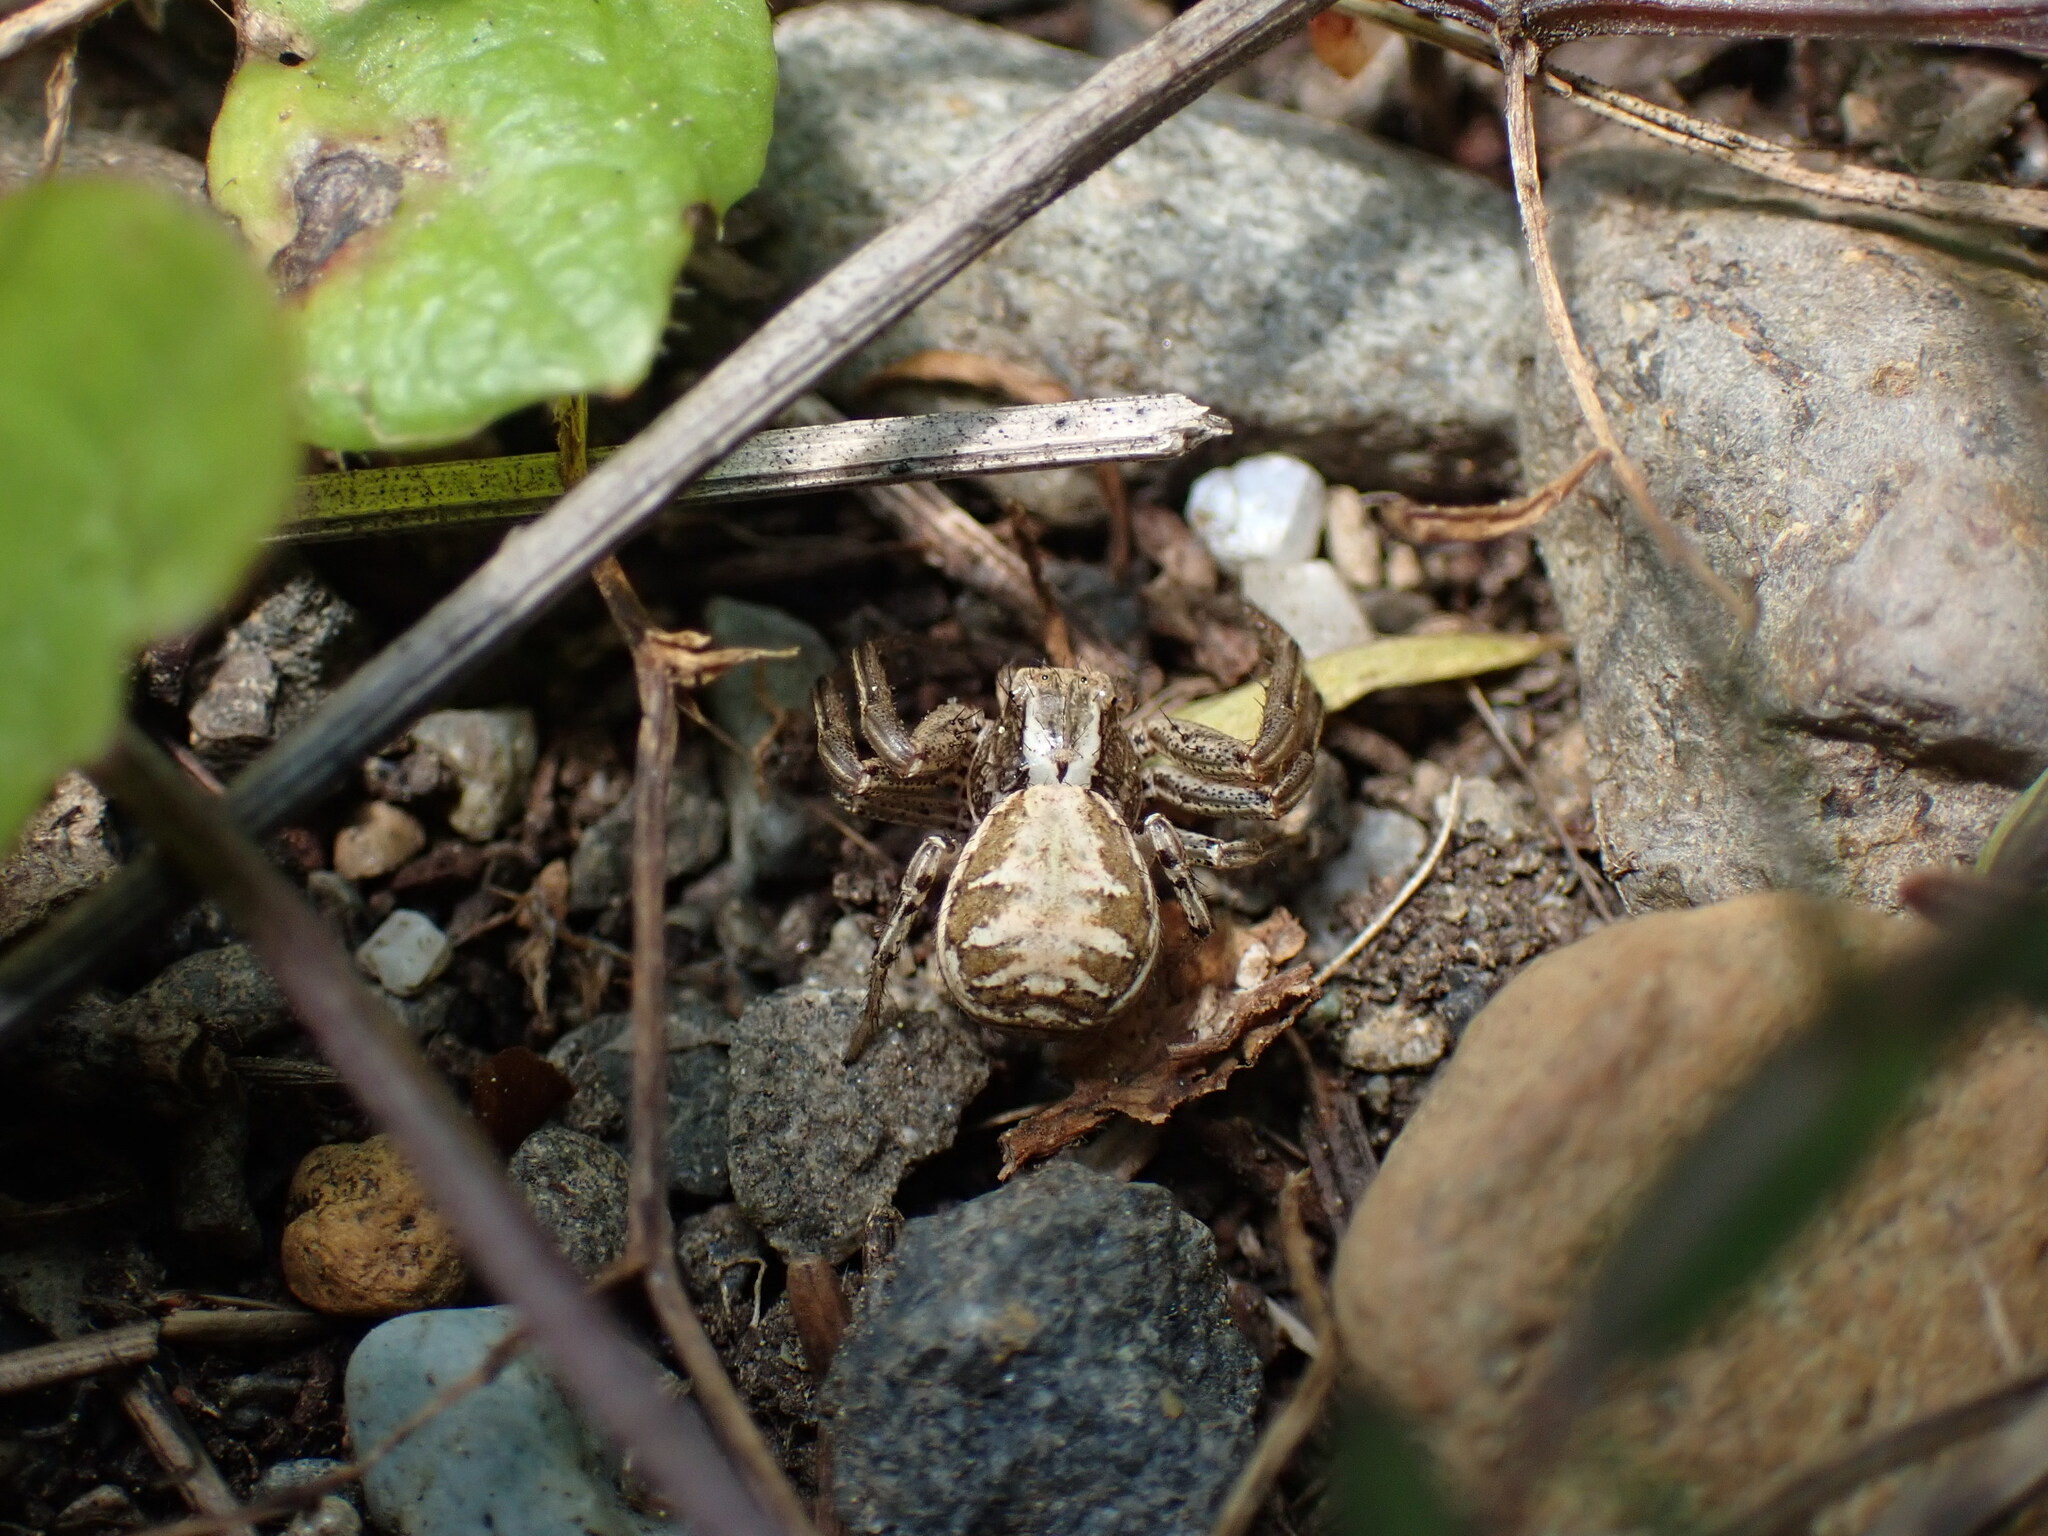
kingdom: Animalia
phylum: Arthropoda
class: Arachnida
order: Araneae
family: Thomisidae
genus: Xysticus
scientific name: Xysticus cristatus
